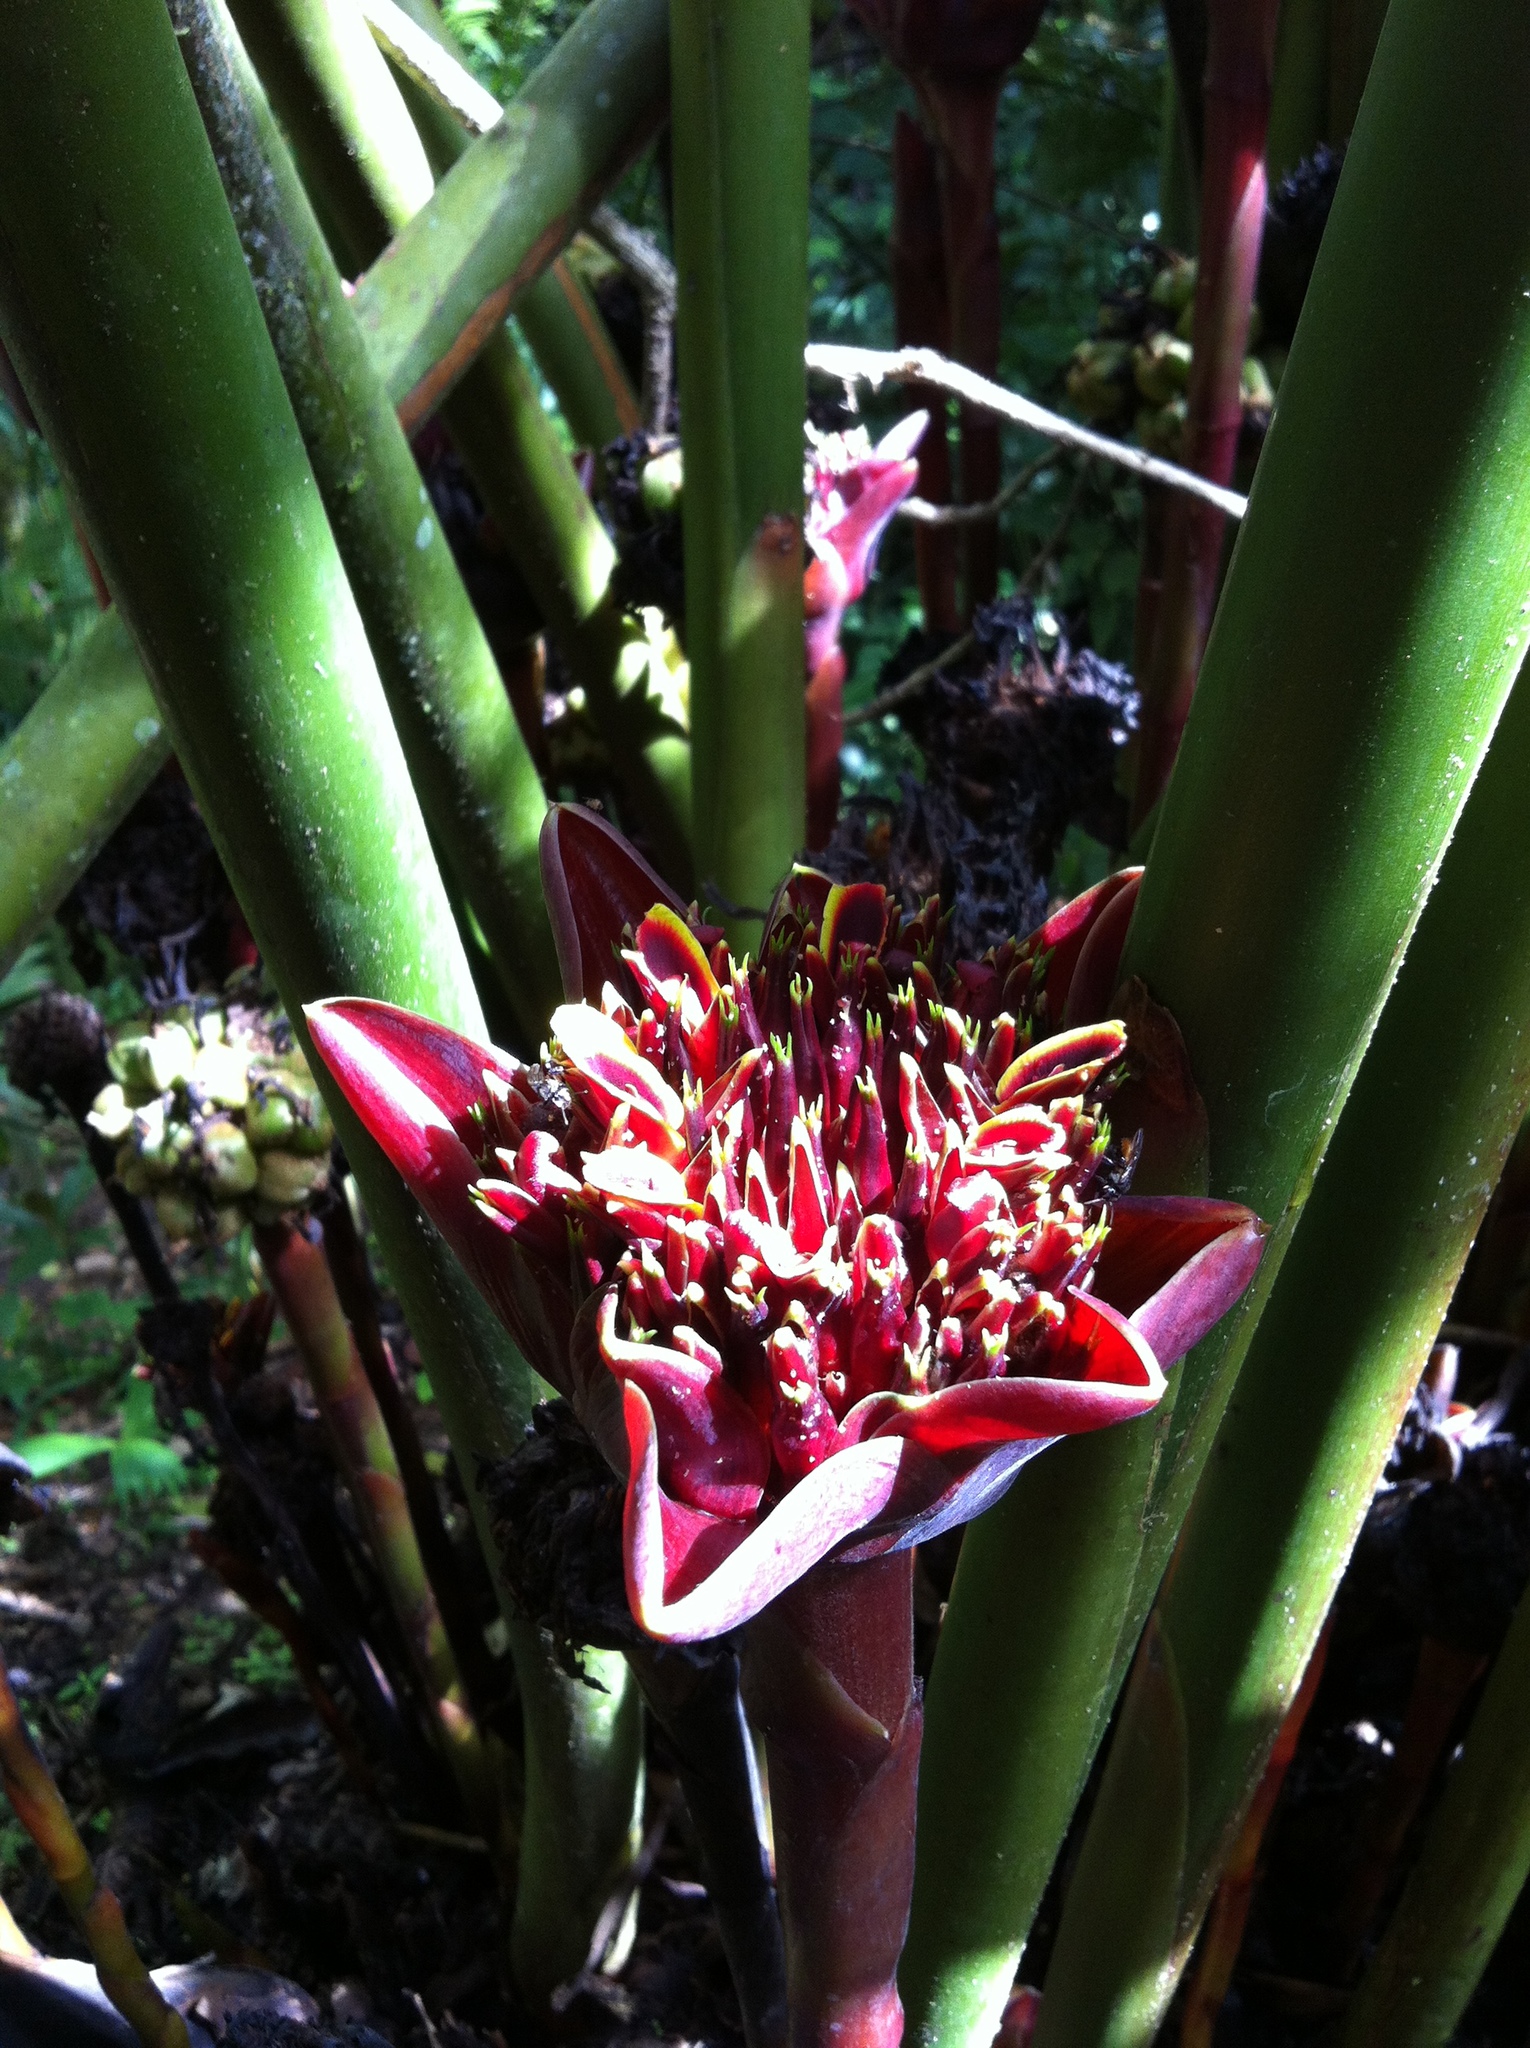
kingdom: Plantae
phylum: Tracheophyta
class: Liliopsida
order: Zingiberales
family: Zingiberaceae
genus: Etlingera
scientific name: Etlingera elatior
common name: Philippine waxflower
